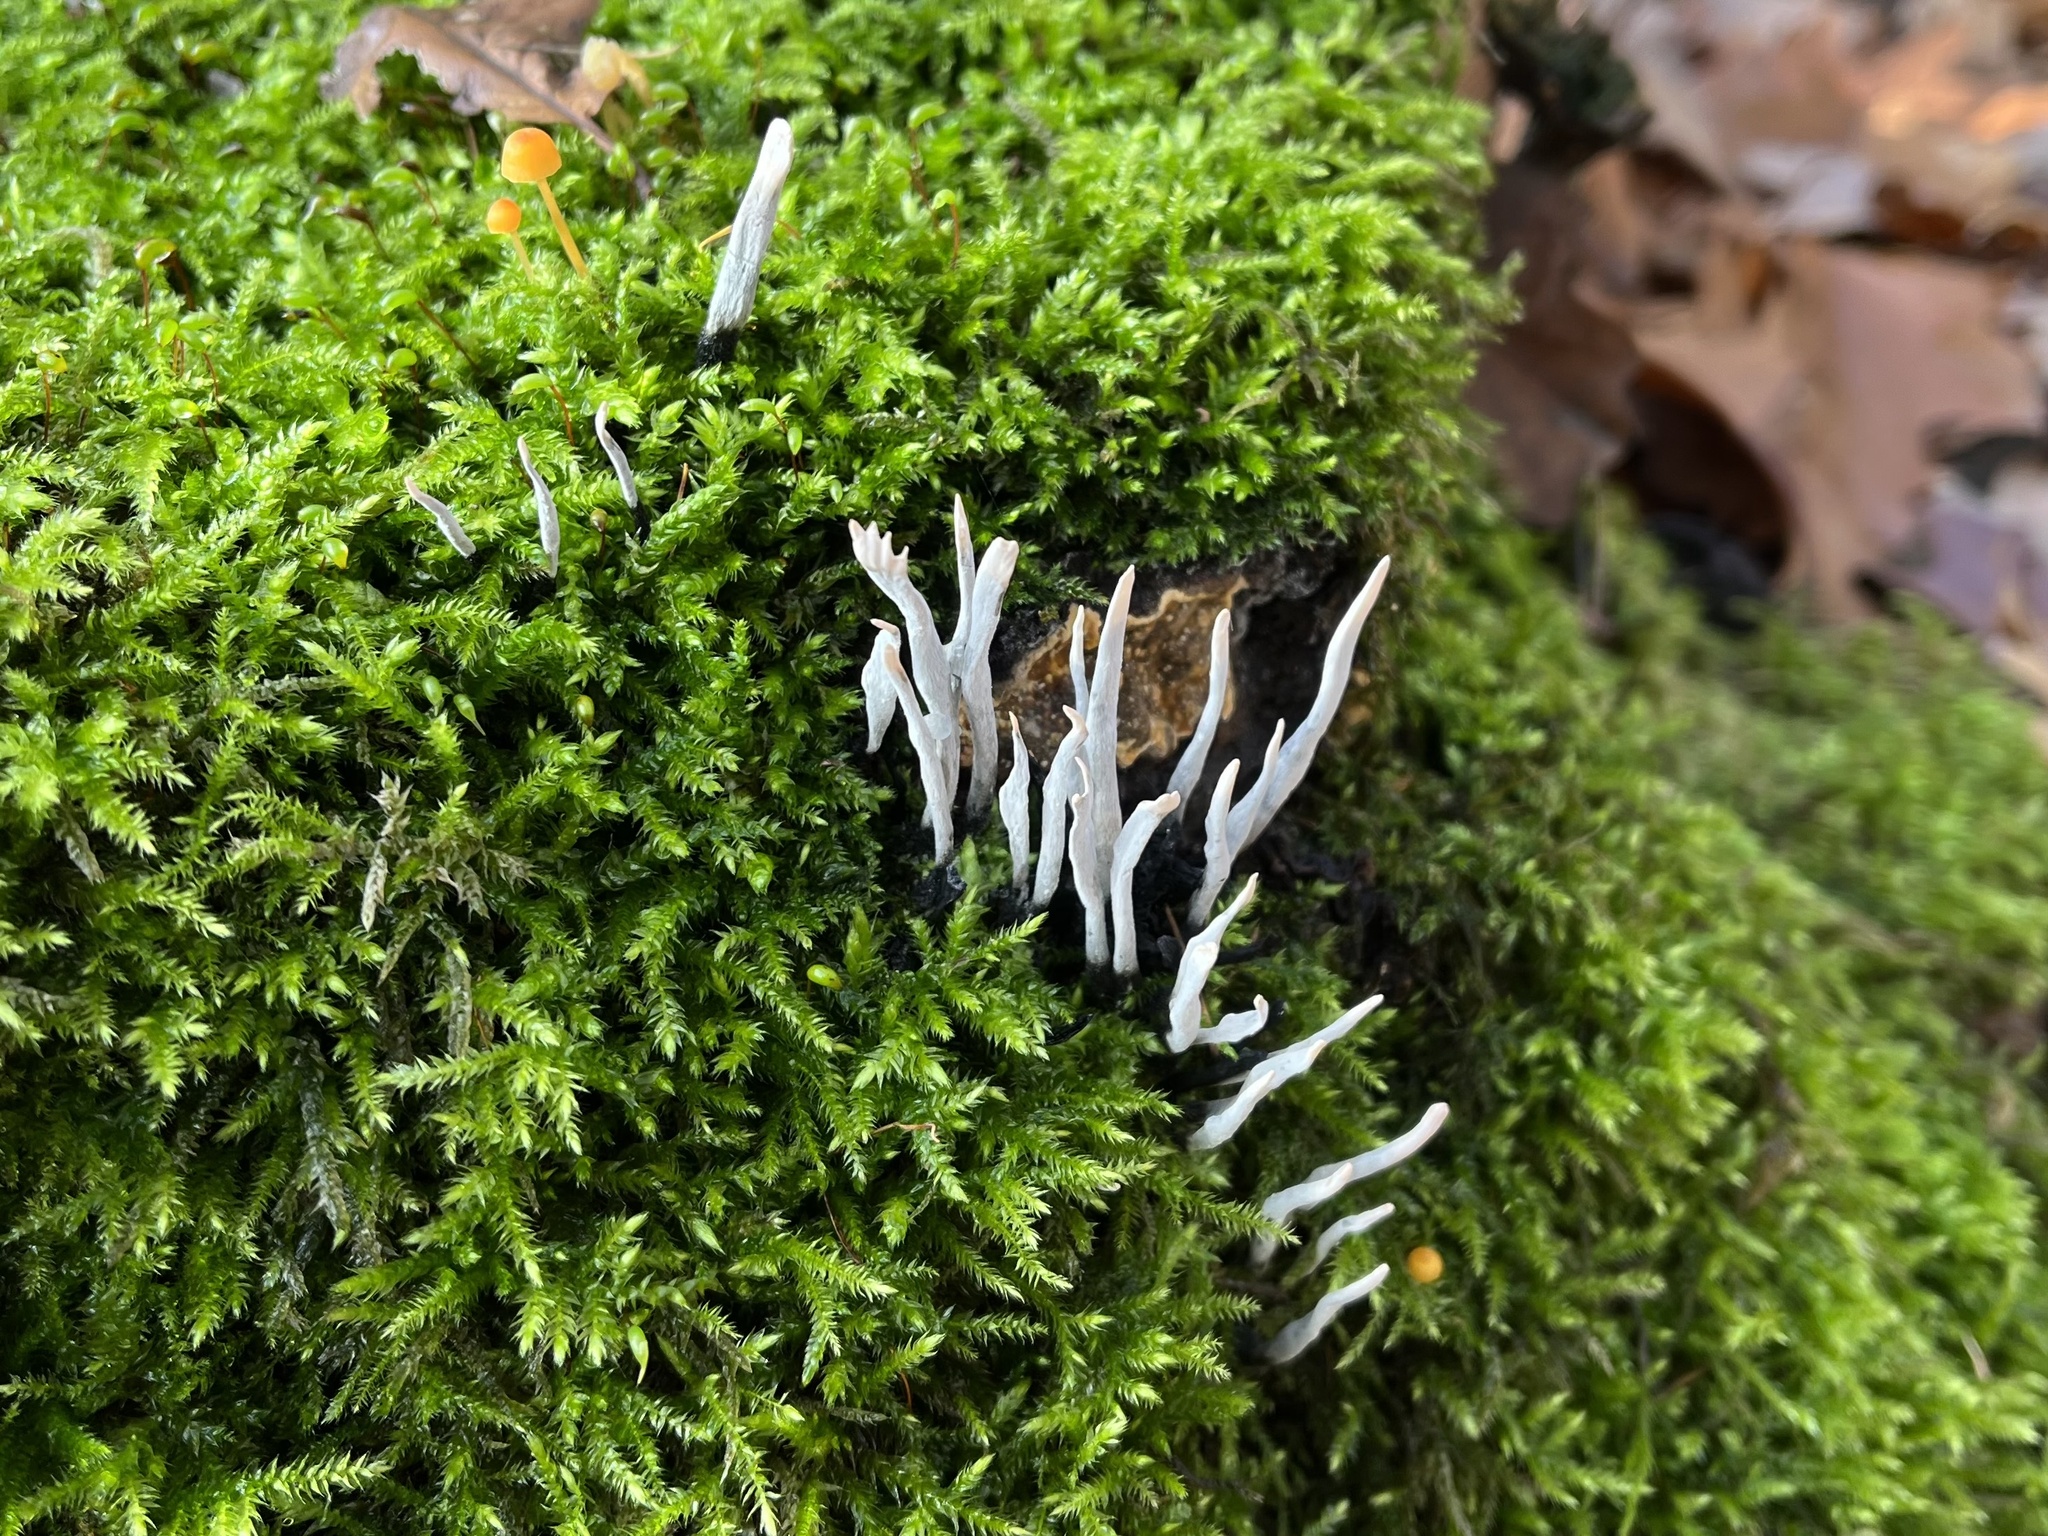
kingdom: Fungi
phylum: Ascomycota
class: Sordariomycetes
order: Xylariales
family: Xylariaceae
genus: Xylaria
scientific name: Xylaria hypoxylon
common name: Candle-snuff fungus
